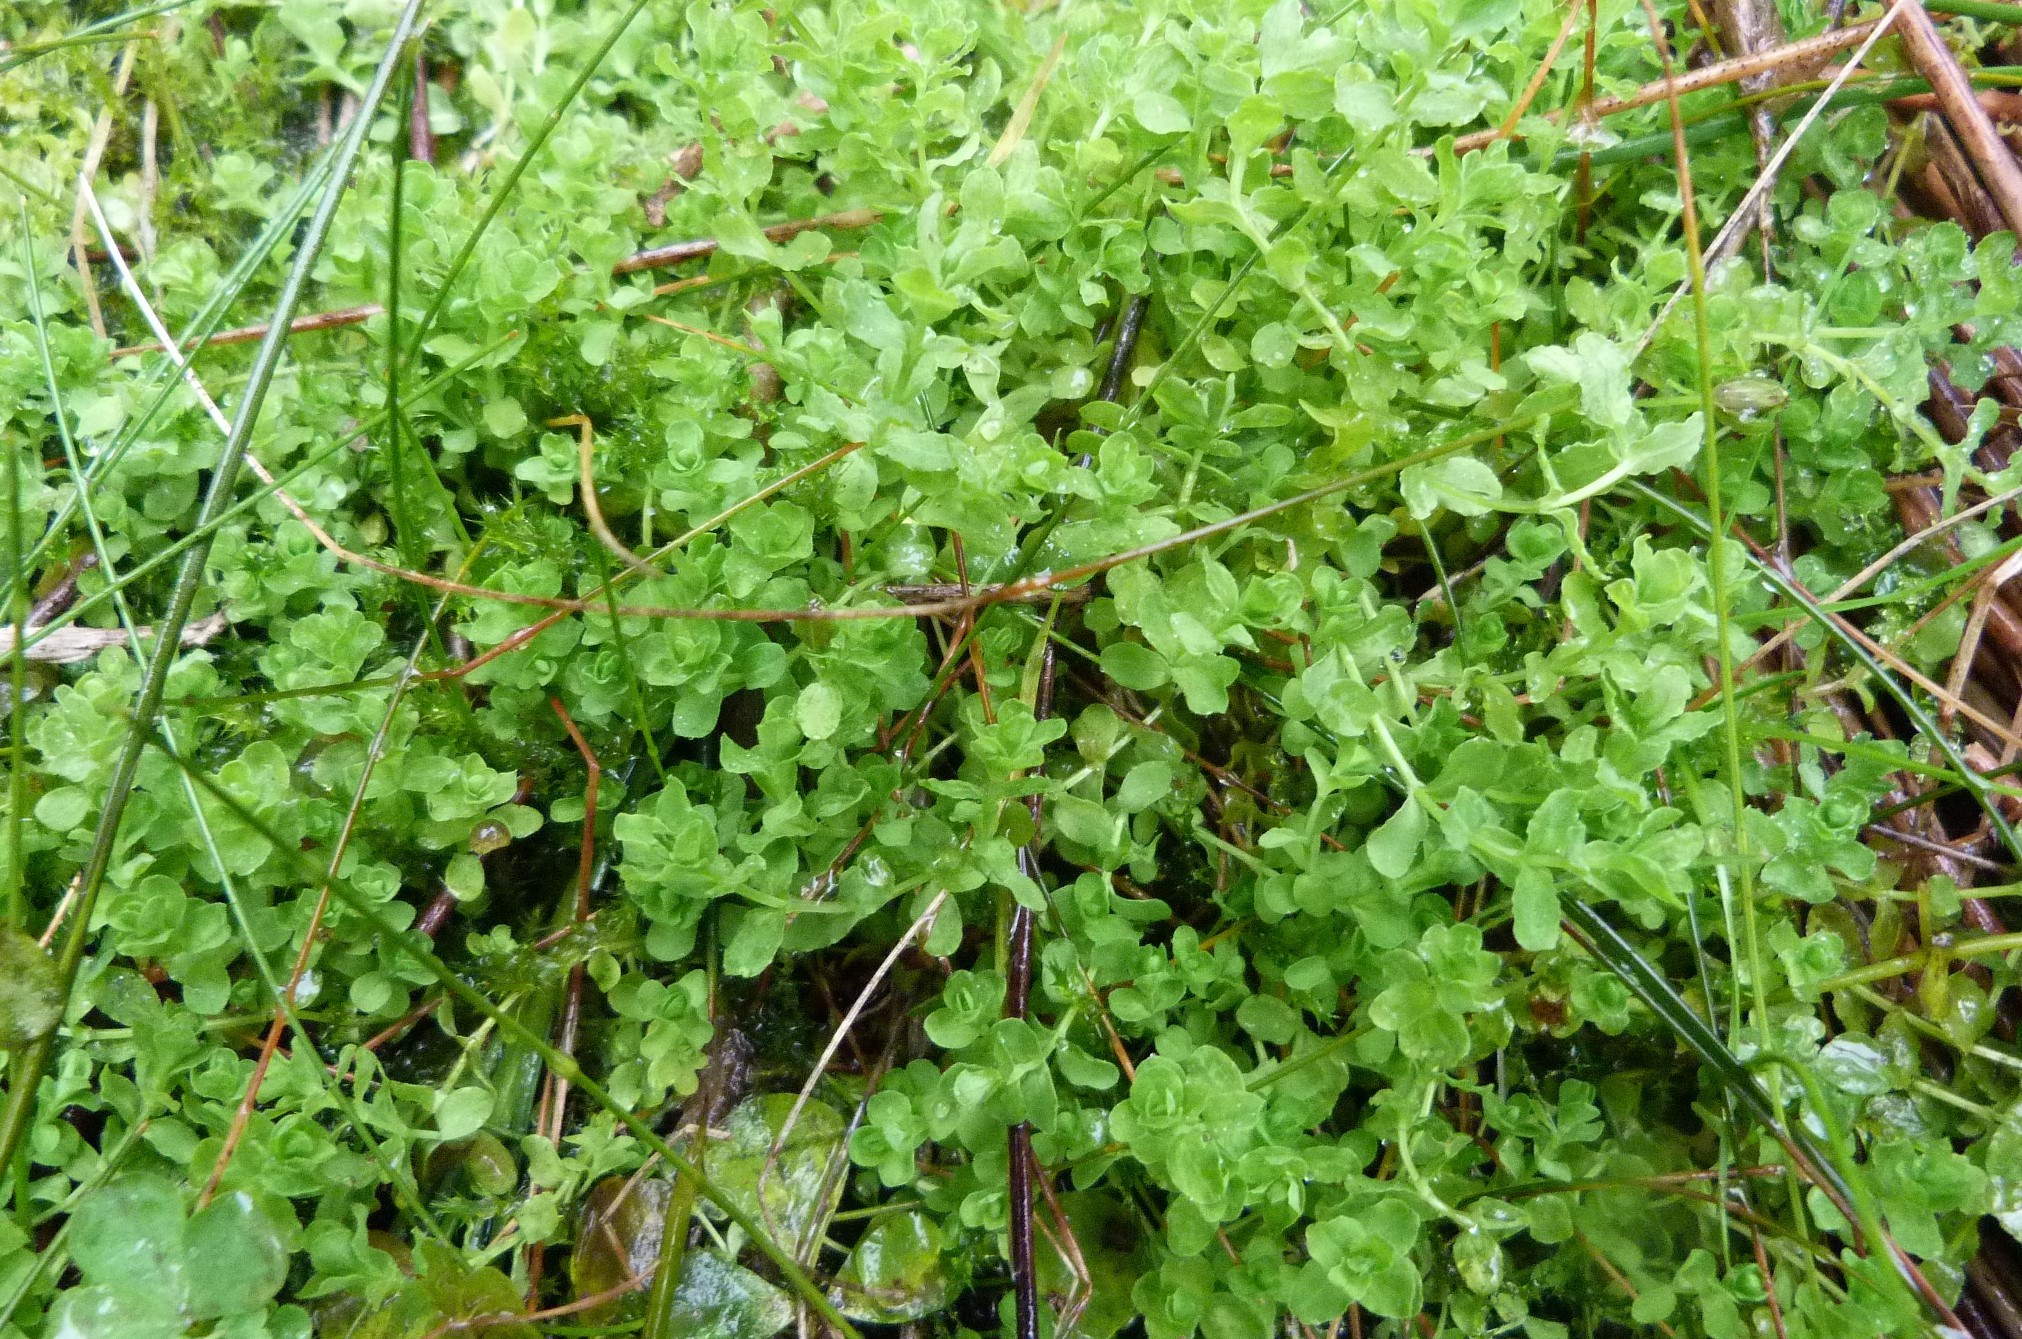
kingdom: Plantae
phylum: Tracheophyta
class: Magnoliopsida
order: Malpighiales
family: Hypericaceae
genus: Hypericum
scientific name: Hypericum japonicum
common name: Matted st. john's-wort
